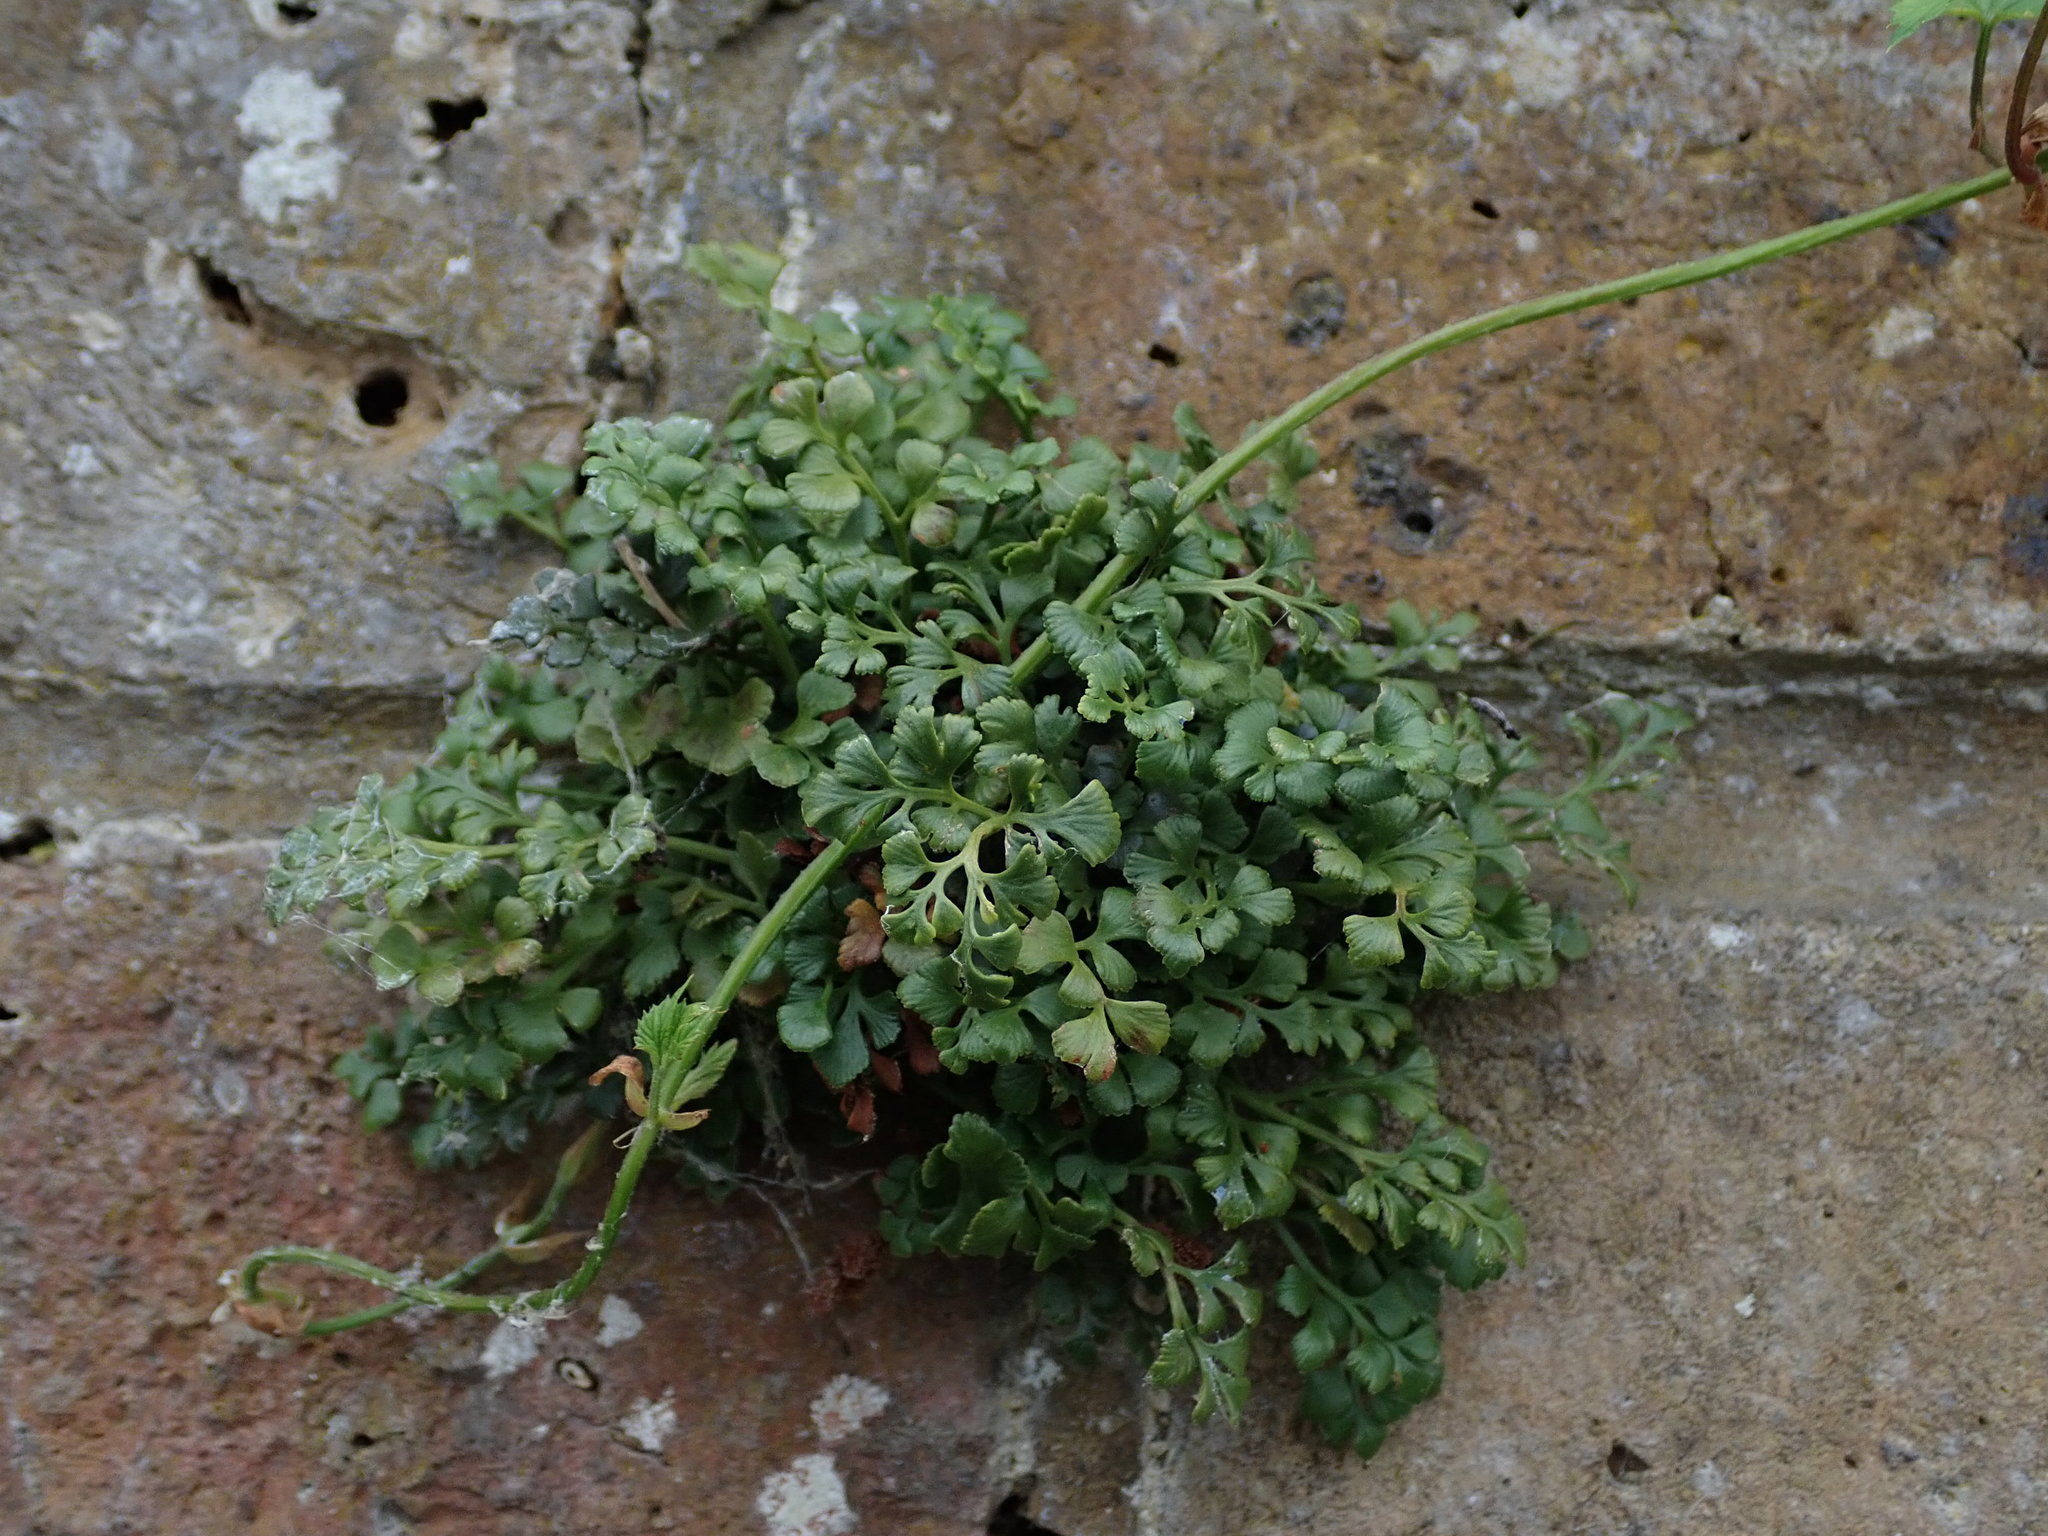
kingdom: Plantae
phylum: Tracheophyta
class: Polypodiopsida
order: Polypodiales
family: Aspleniaceae
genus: Asplenium
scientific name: Asplenium ruta-muraria
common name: Wall-rue
